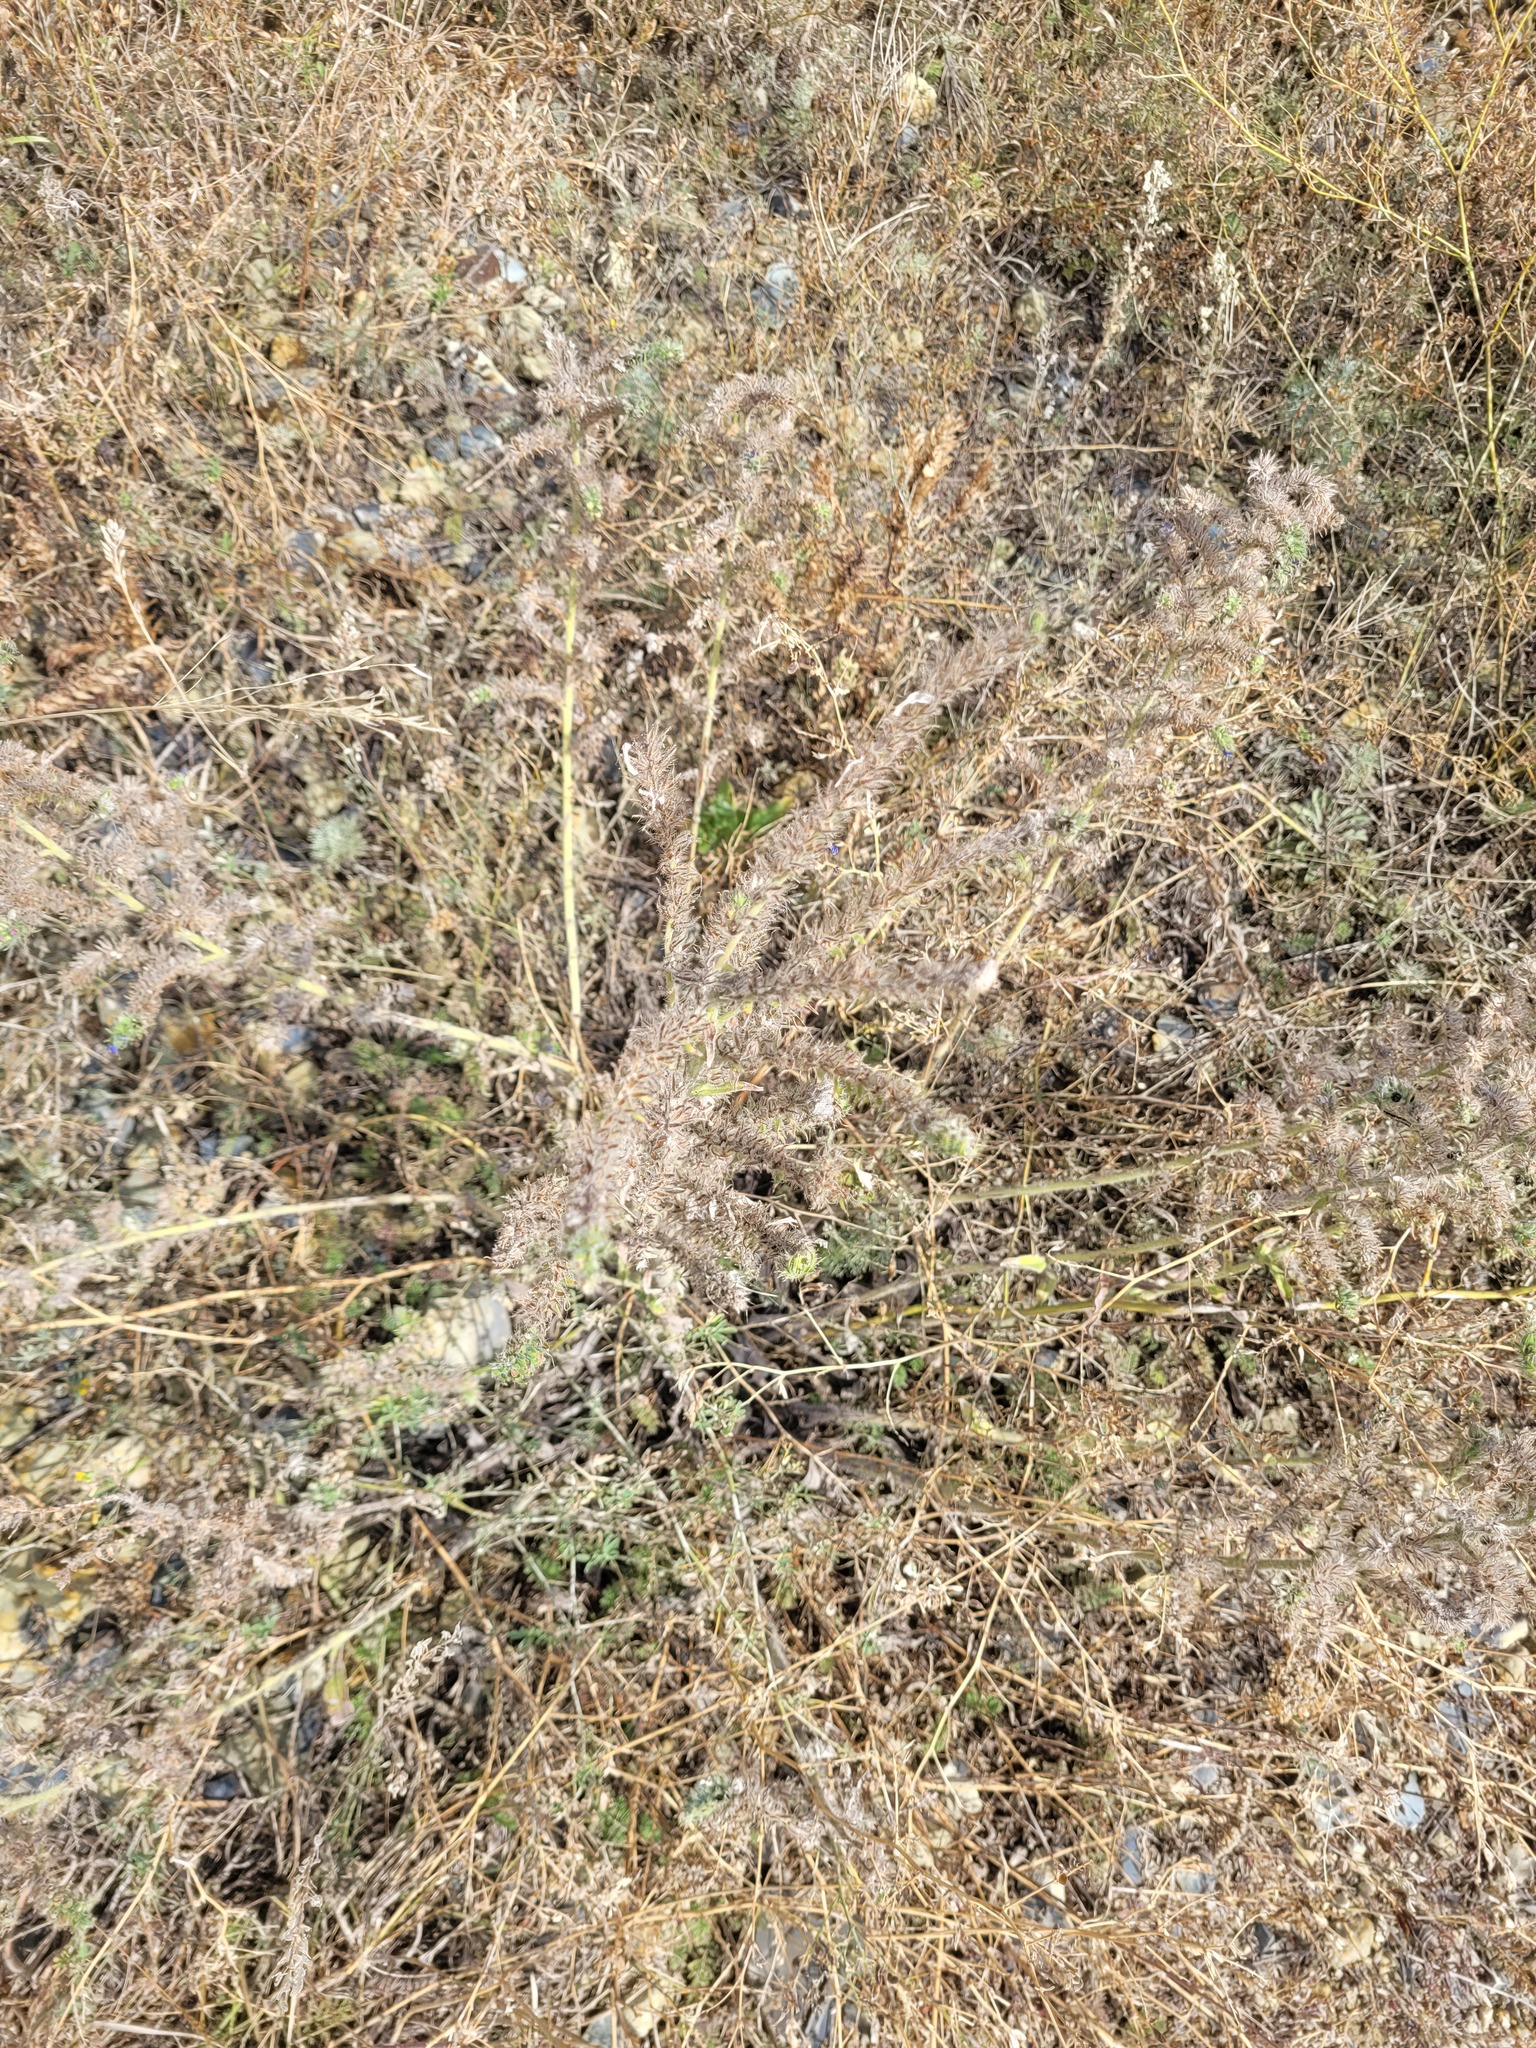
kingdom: Plantae
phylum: Tracheophyta
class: Magnoliopsida
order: Boraginales
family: Boraginaceae
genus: Echium
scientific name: Echium vulgare
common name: Common viper's bugloss
